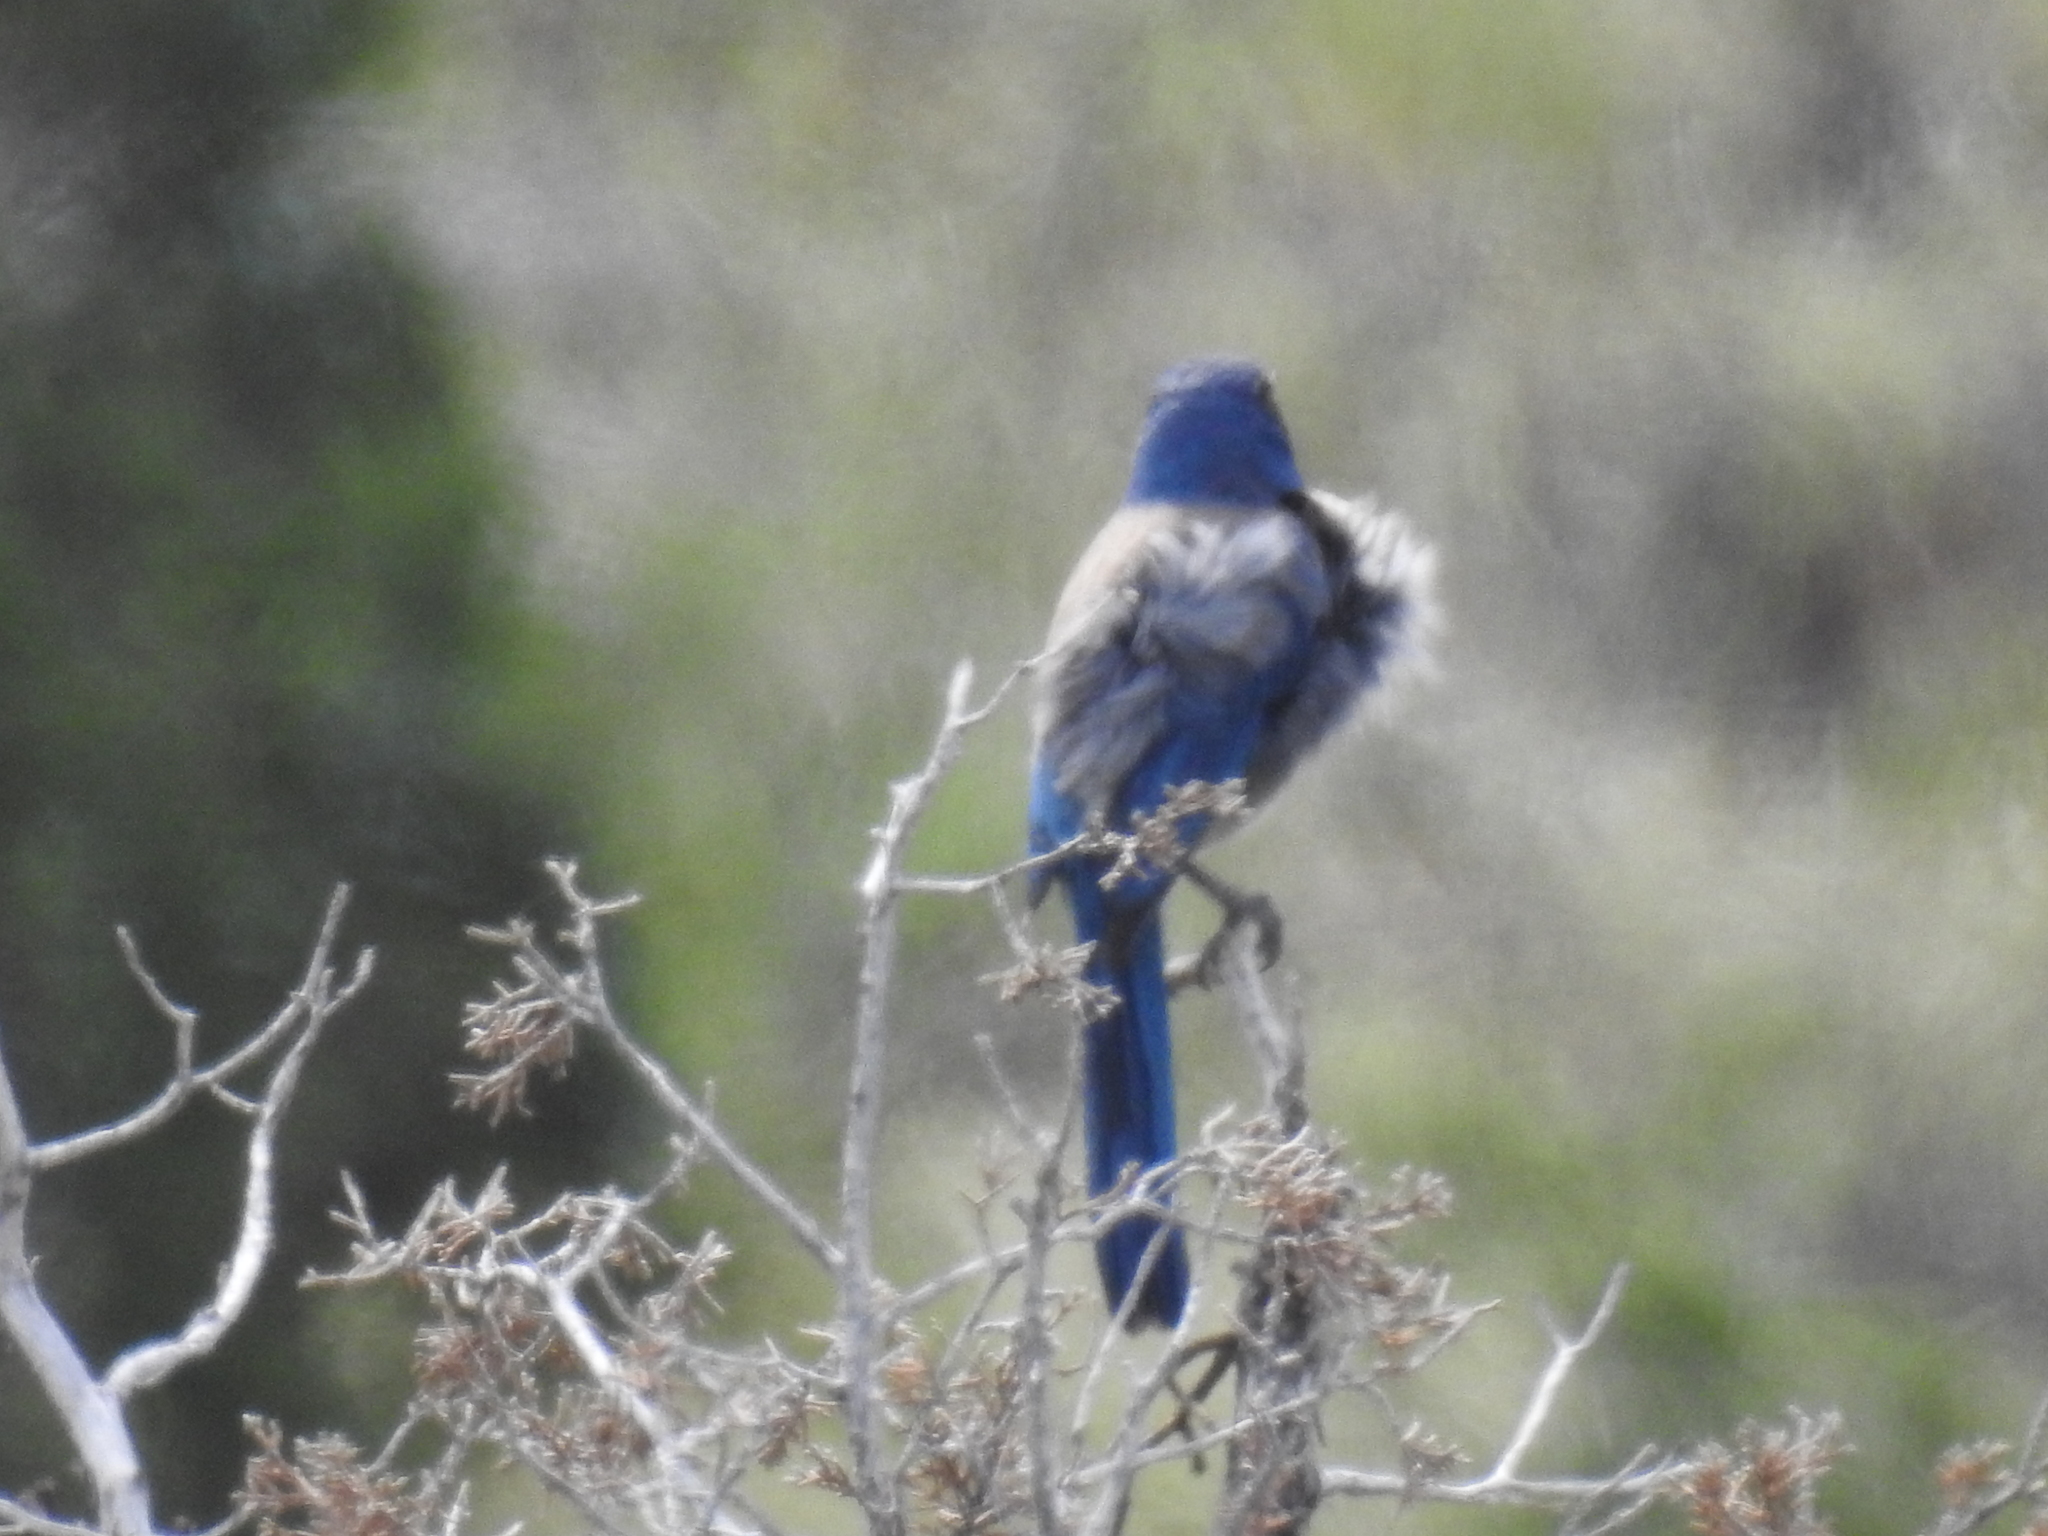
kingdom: Animalia
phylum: Chordata
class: Aves
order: Passeriformes
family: Corvidae
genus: Aphelocoma
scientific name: Aphelocoma californica
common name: California scrub-jay
